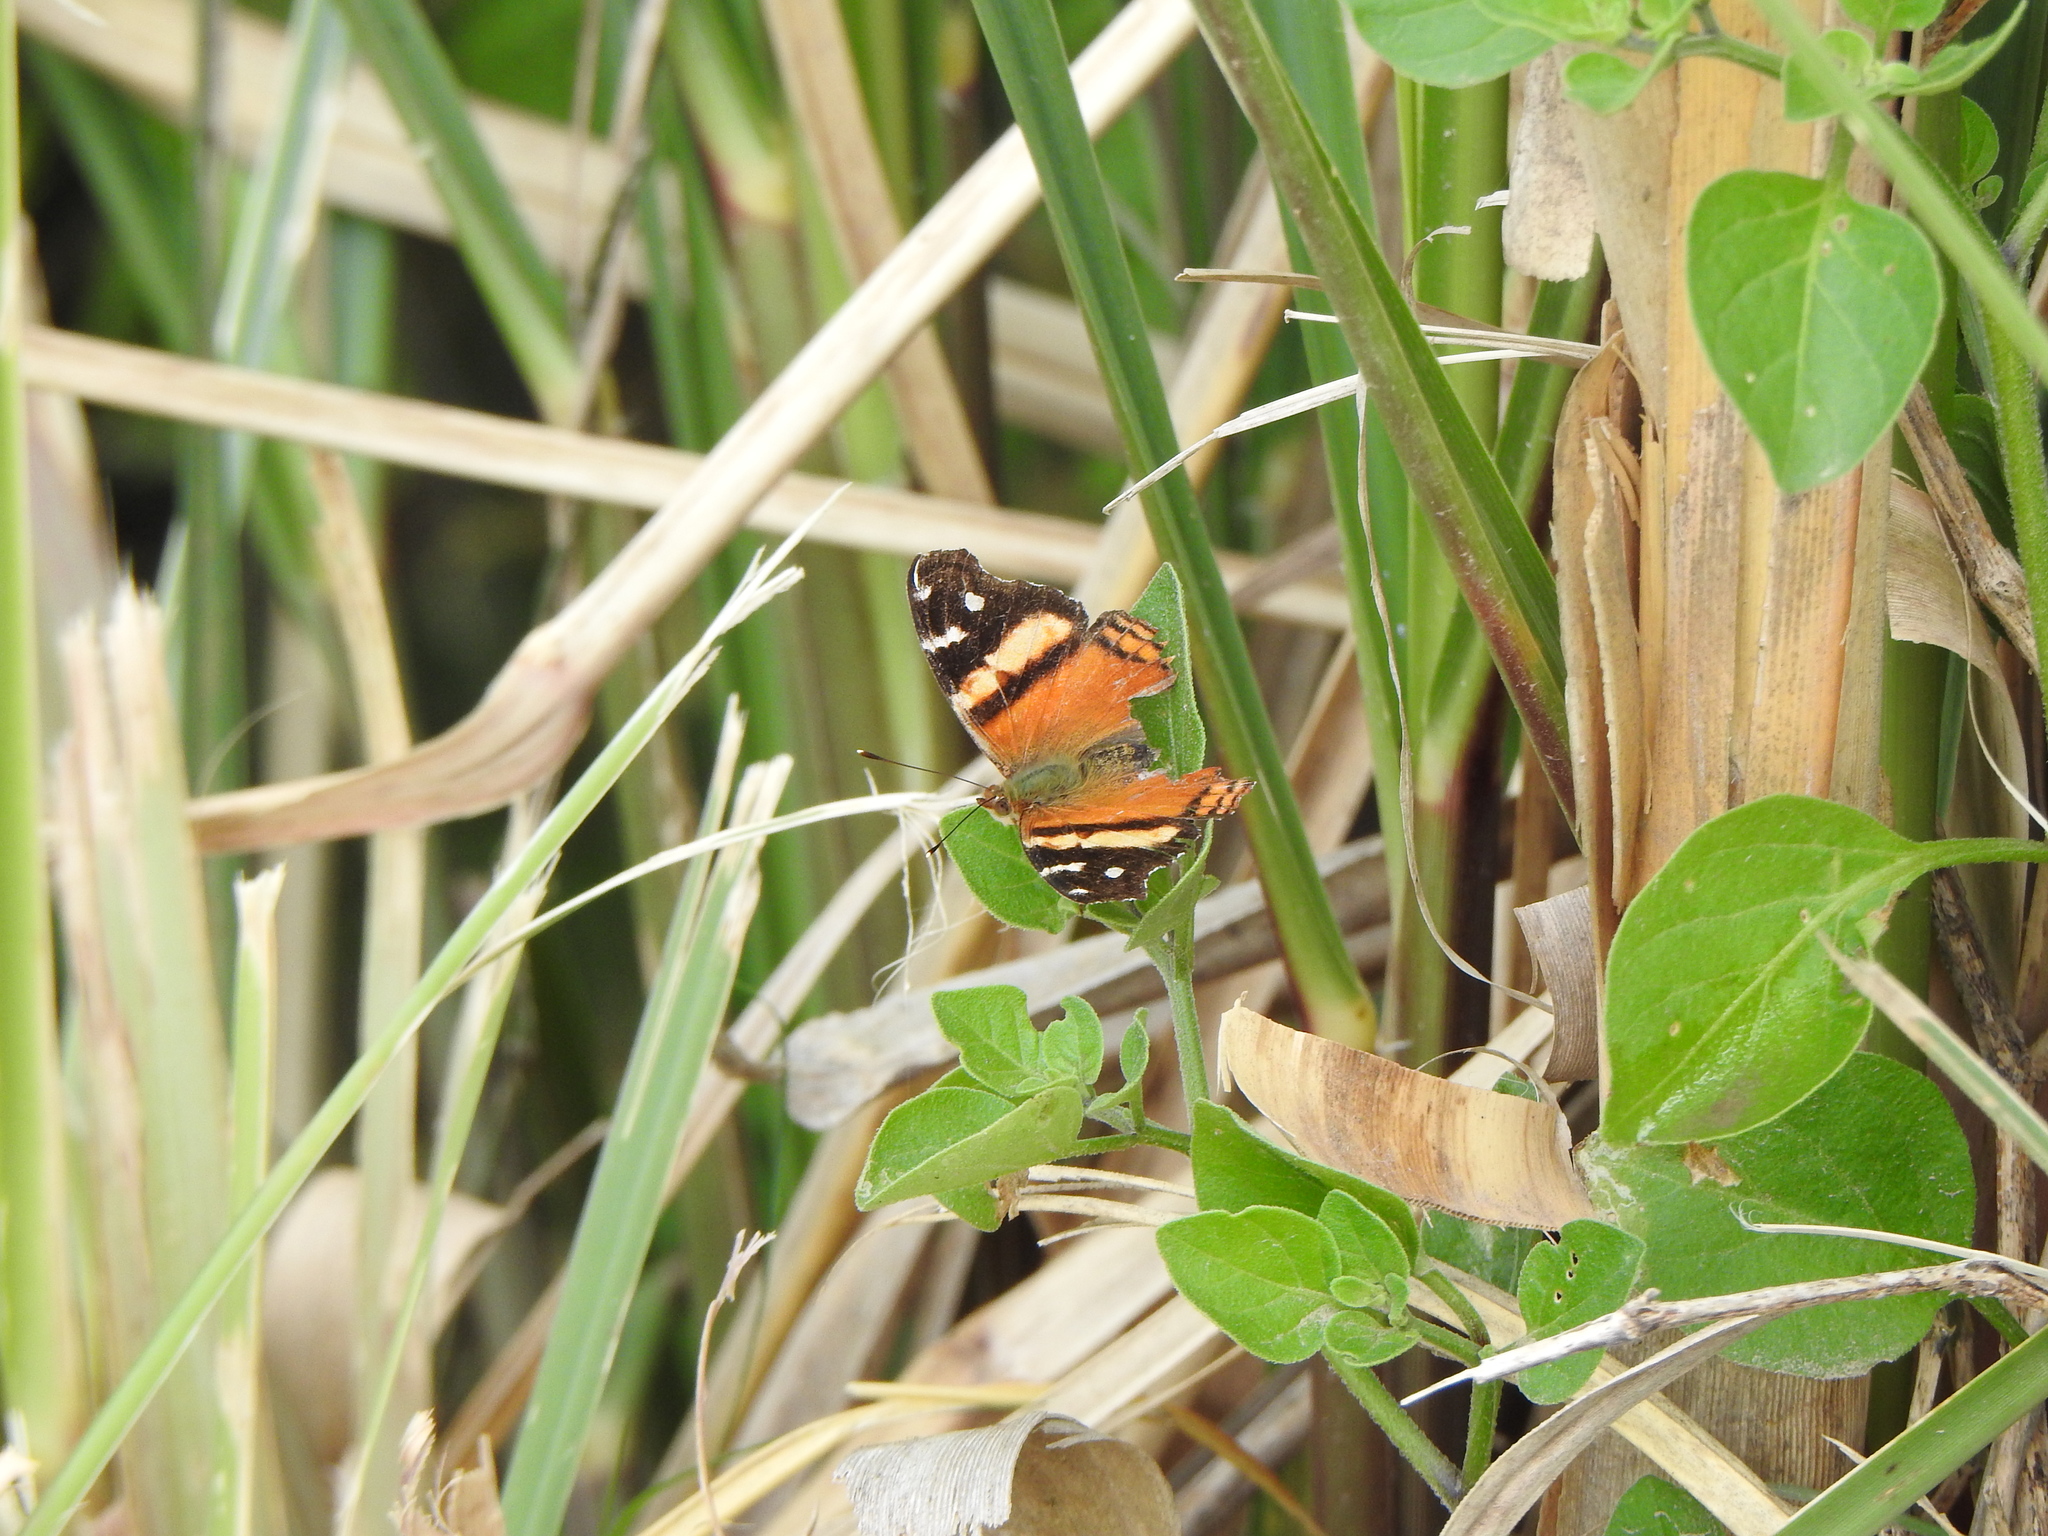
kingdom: Animalia
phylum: Arthropoda
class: Insecta
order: Lepidoptera
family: Nymphalidae
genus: Hypanartia
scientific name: Hypanartia bella
